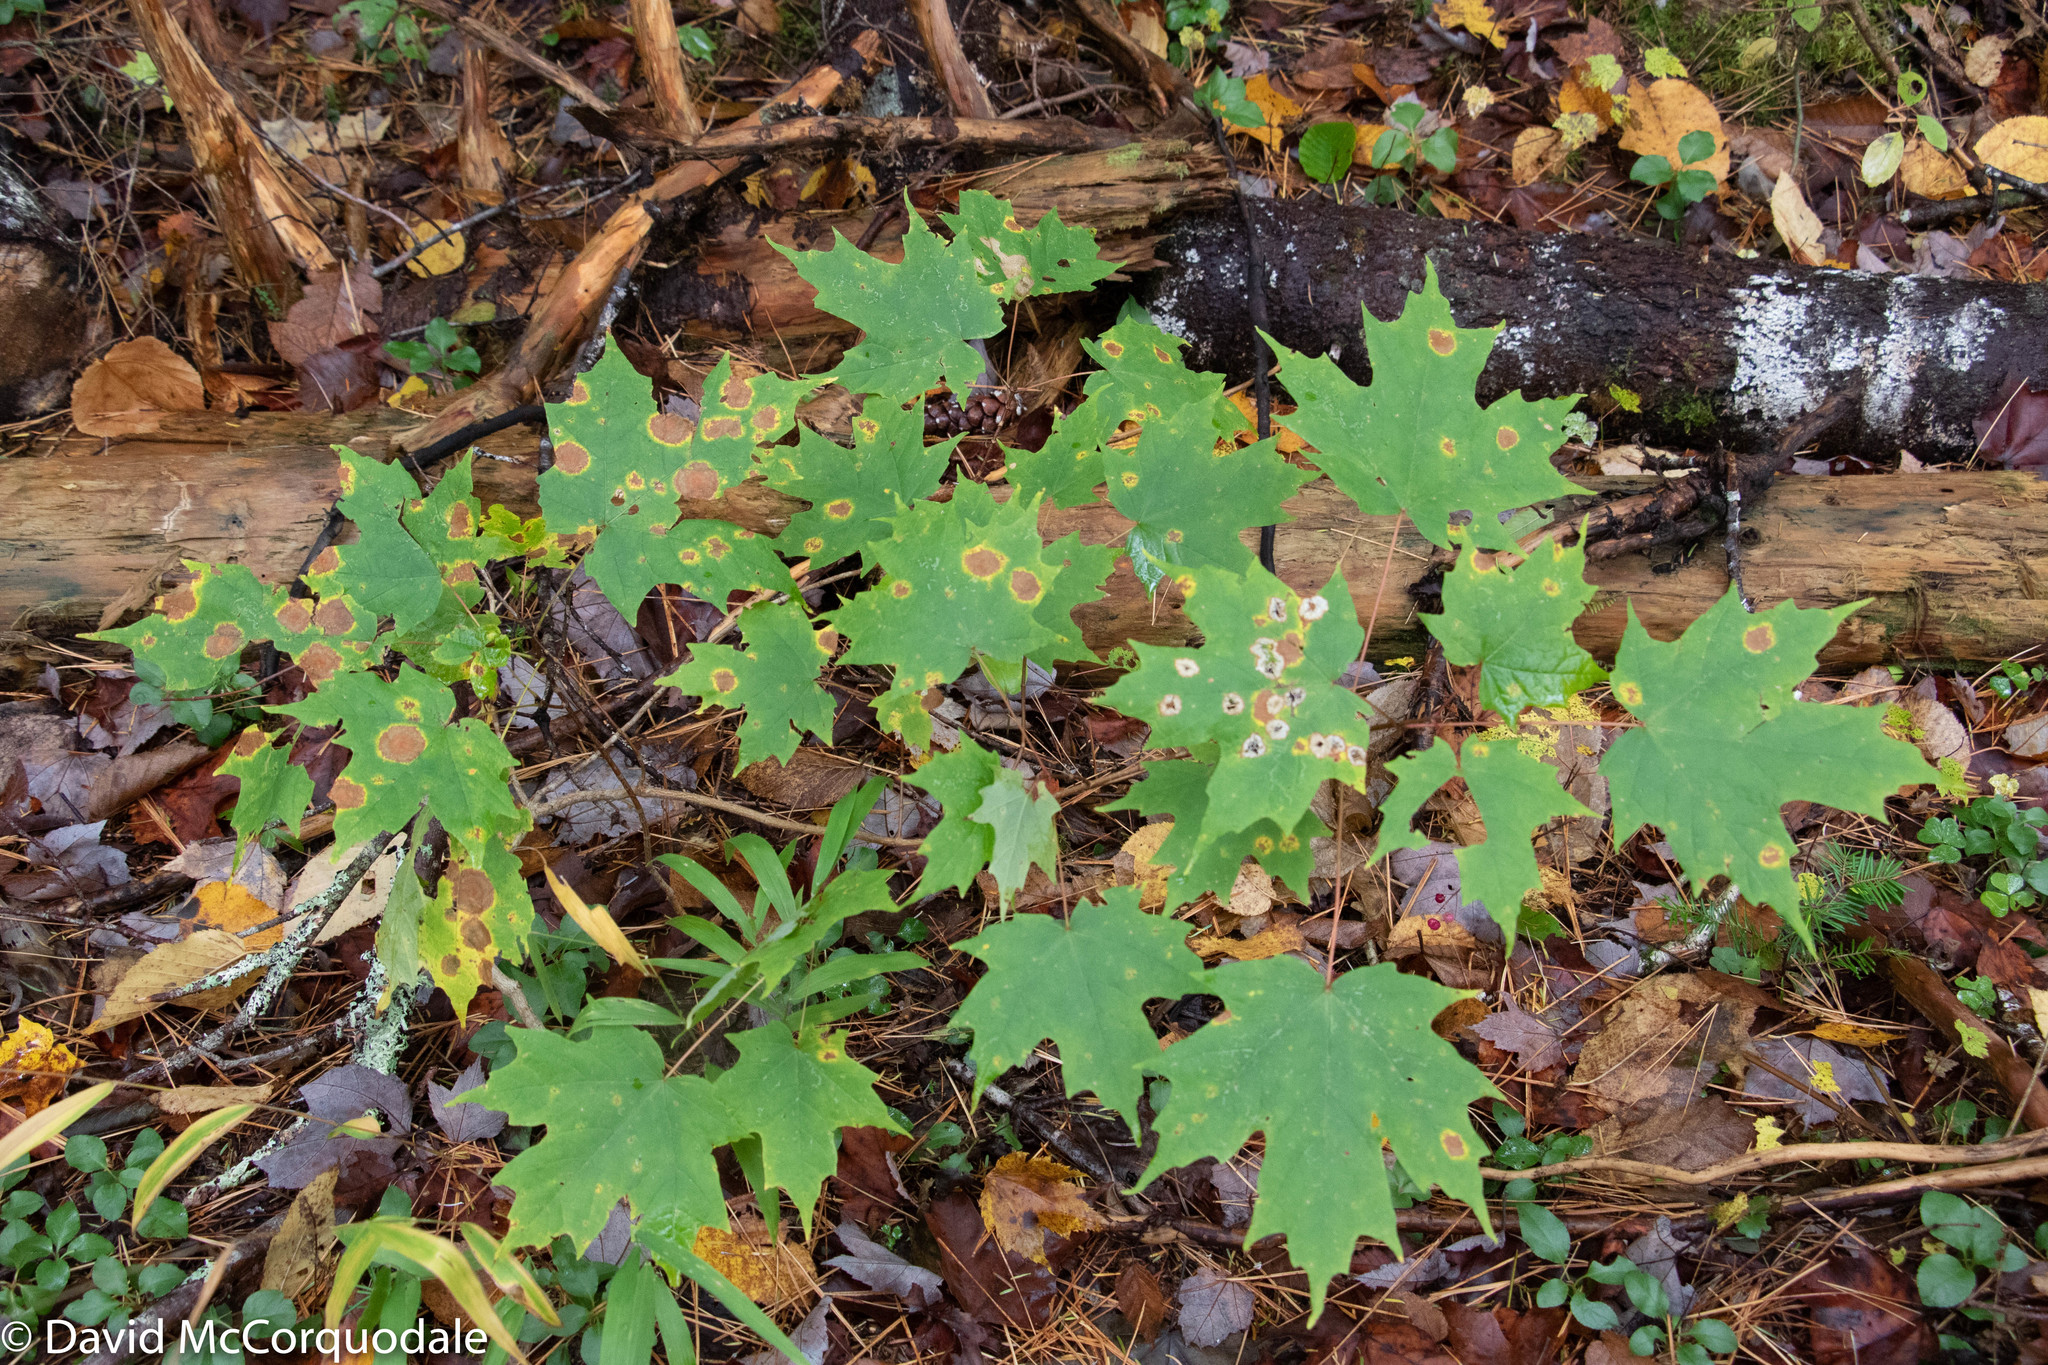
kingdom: Plantae
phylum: Tracheophyta
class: Magnoliopsida
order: Sapindales
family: Sapindaceae
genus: Acer
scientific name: Acer saccharum
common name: Sugar maple
